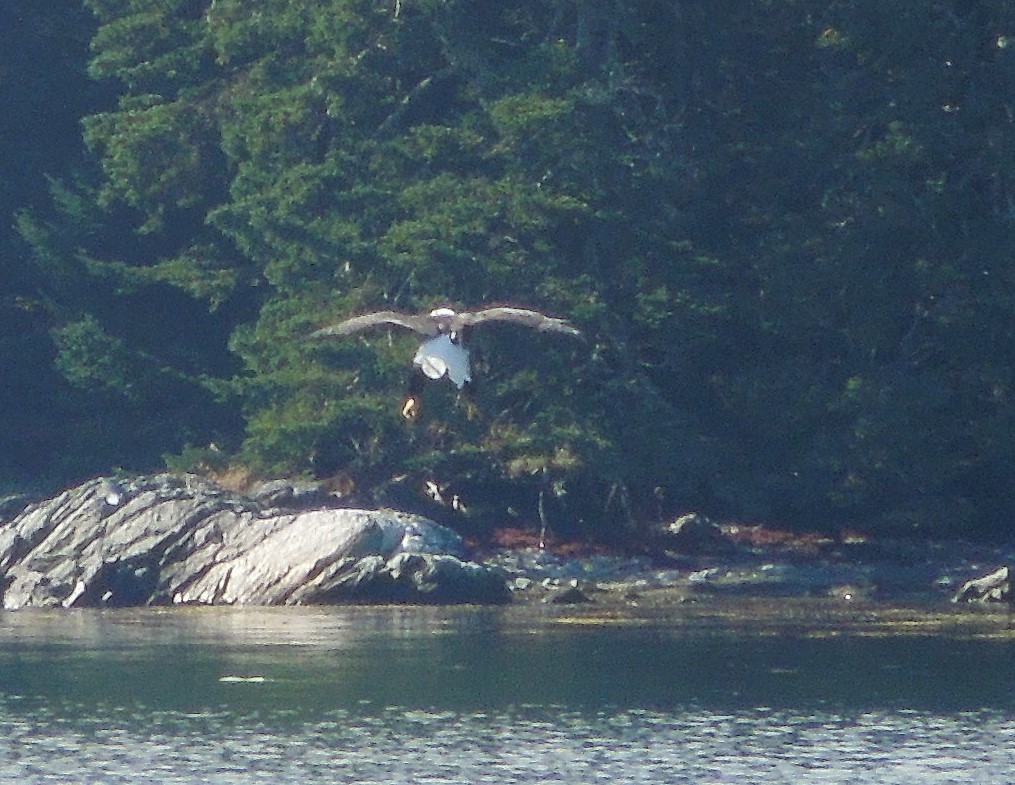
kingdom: Animalia
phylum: Chordata
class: Aves
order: Accipitriformes
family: Accipitridae
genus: Haliaeetus
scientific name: Haliaeetus leucocephalus
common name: Bald eagle
